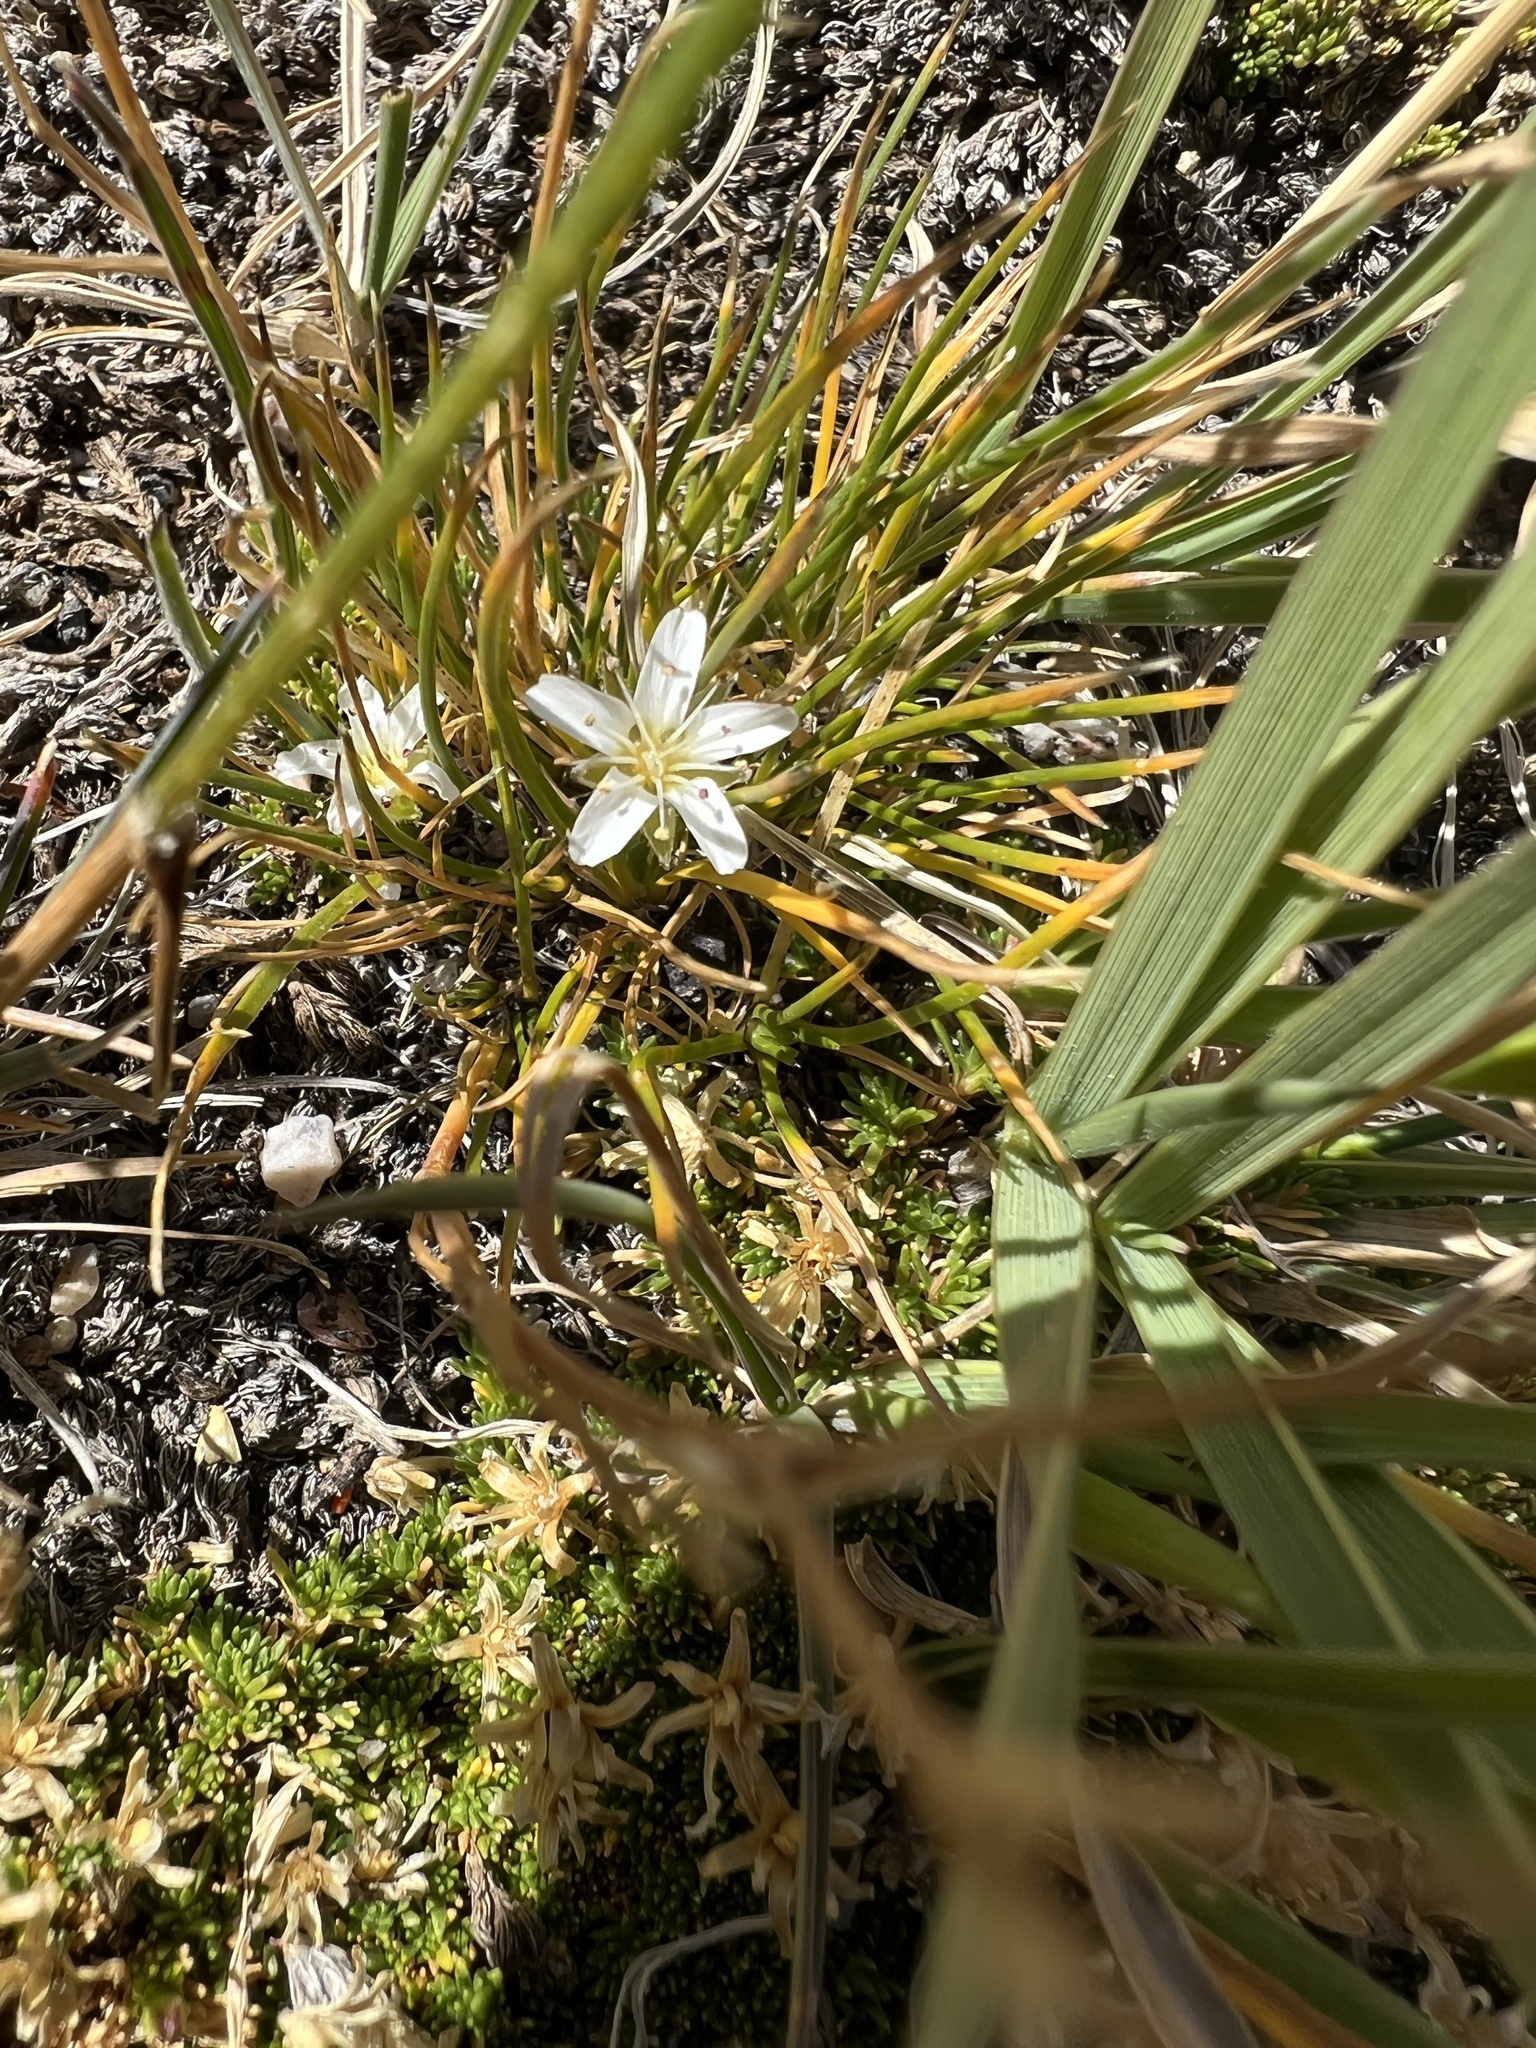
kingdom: Plantae
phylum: Tracheophyta
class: Magnoliopsida
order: Caryophyllales
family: Caryophyllaceae
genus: Eremogone
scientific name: Eremogone fendleri
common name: Fendler's sandwort
